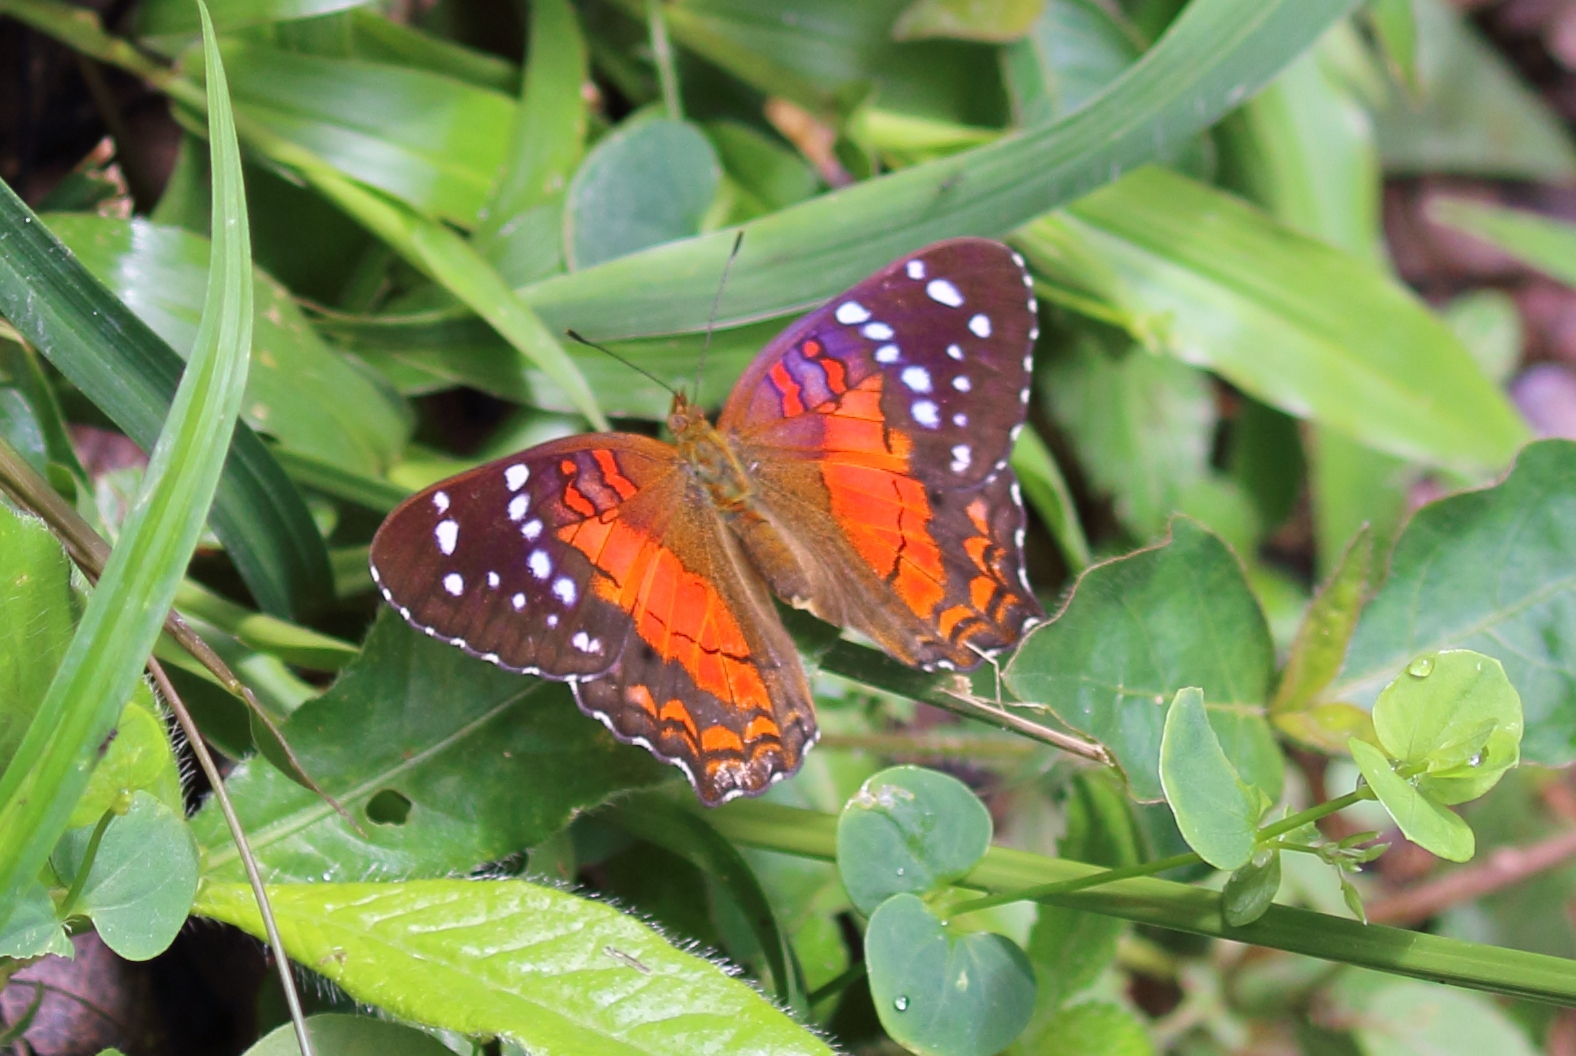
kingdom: Animalia
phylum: Arthropoda
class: Insecta
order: Lepidoptera
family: Nymphalidae
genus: Anartia
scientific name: Anartia amathea
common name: Red peacock
